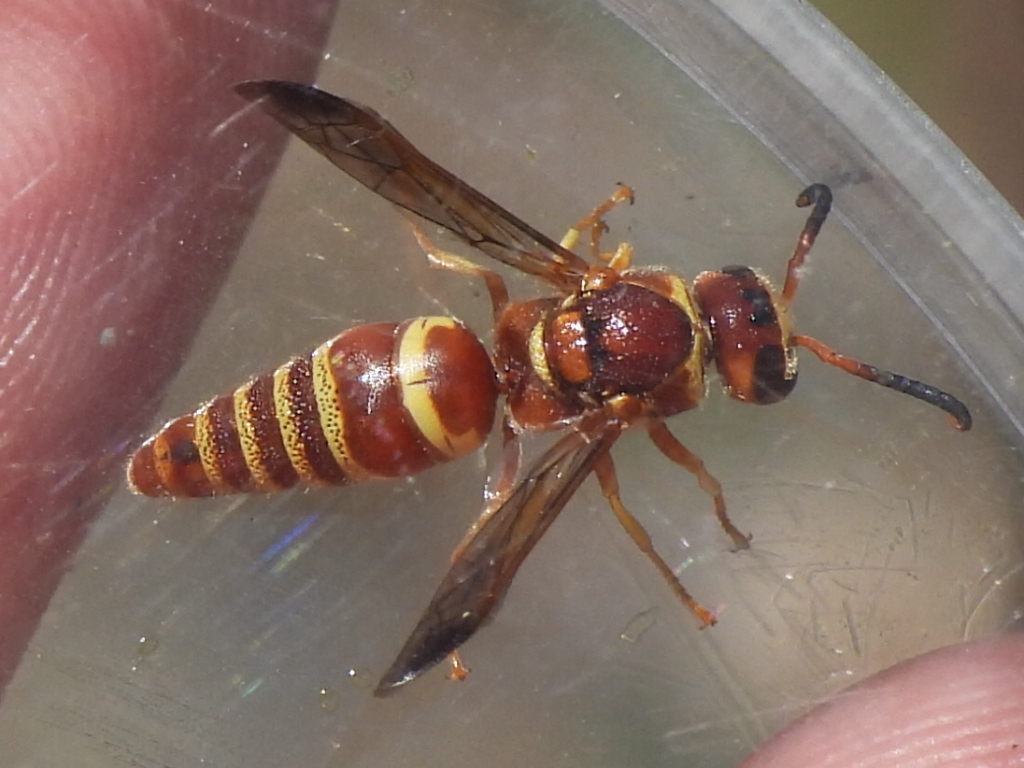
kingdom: Animalia
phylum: Arthropoda
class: Insecta
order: Hymenoptera
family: Eumenidae
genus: Euodynerus
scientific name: Euodynerus pratensis
